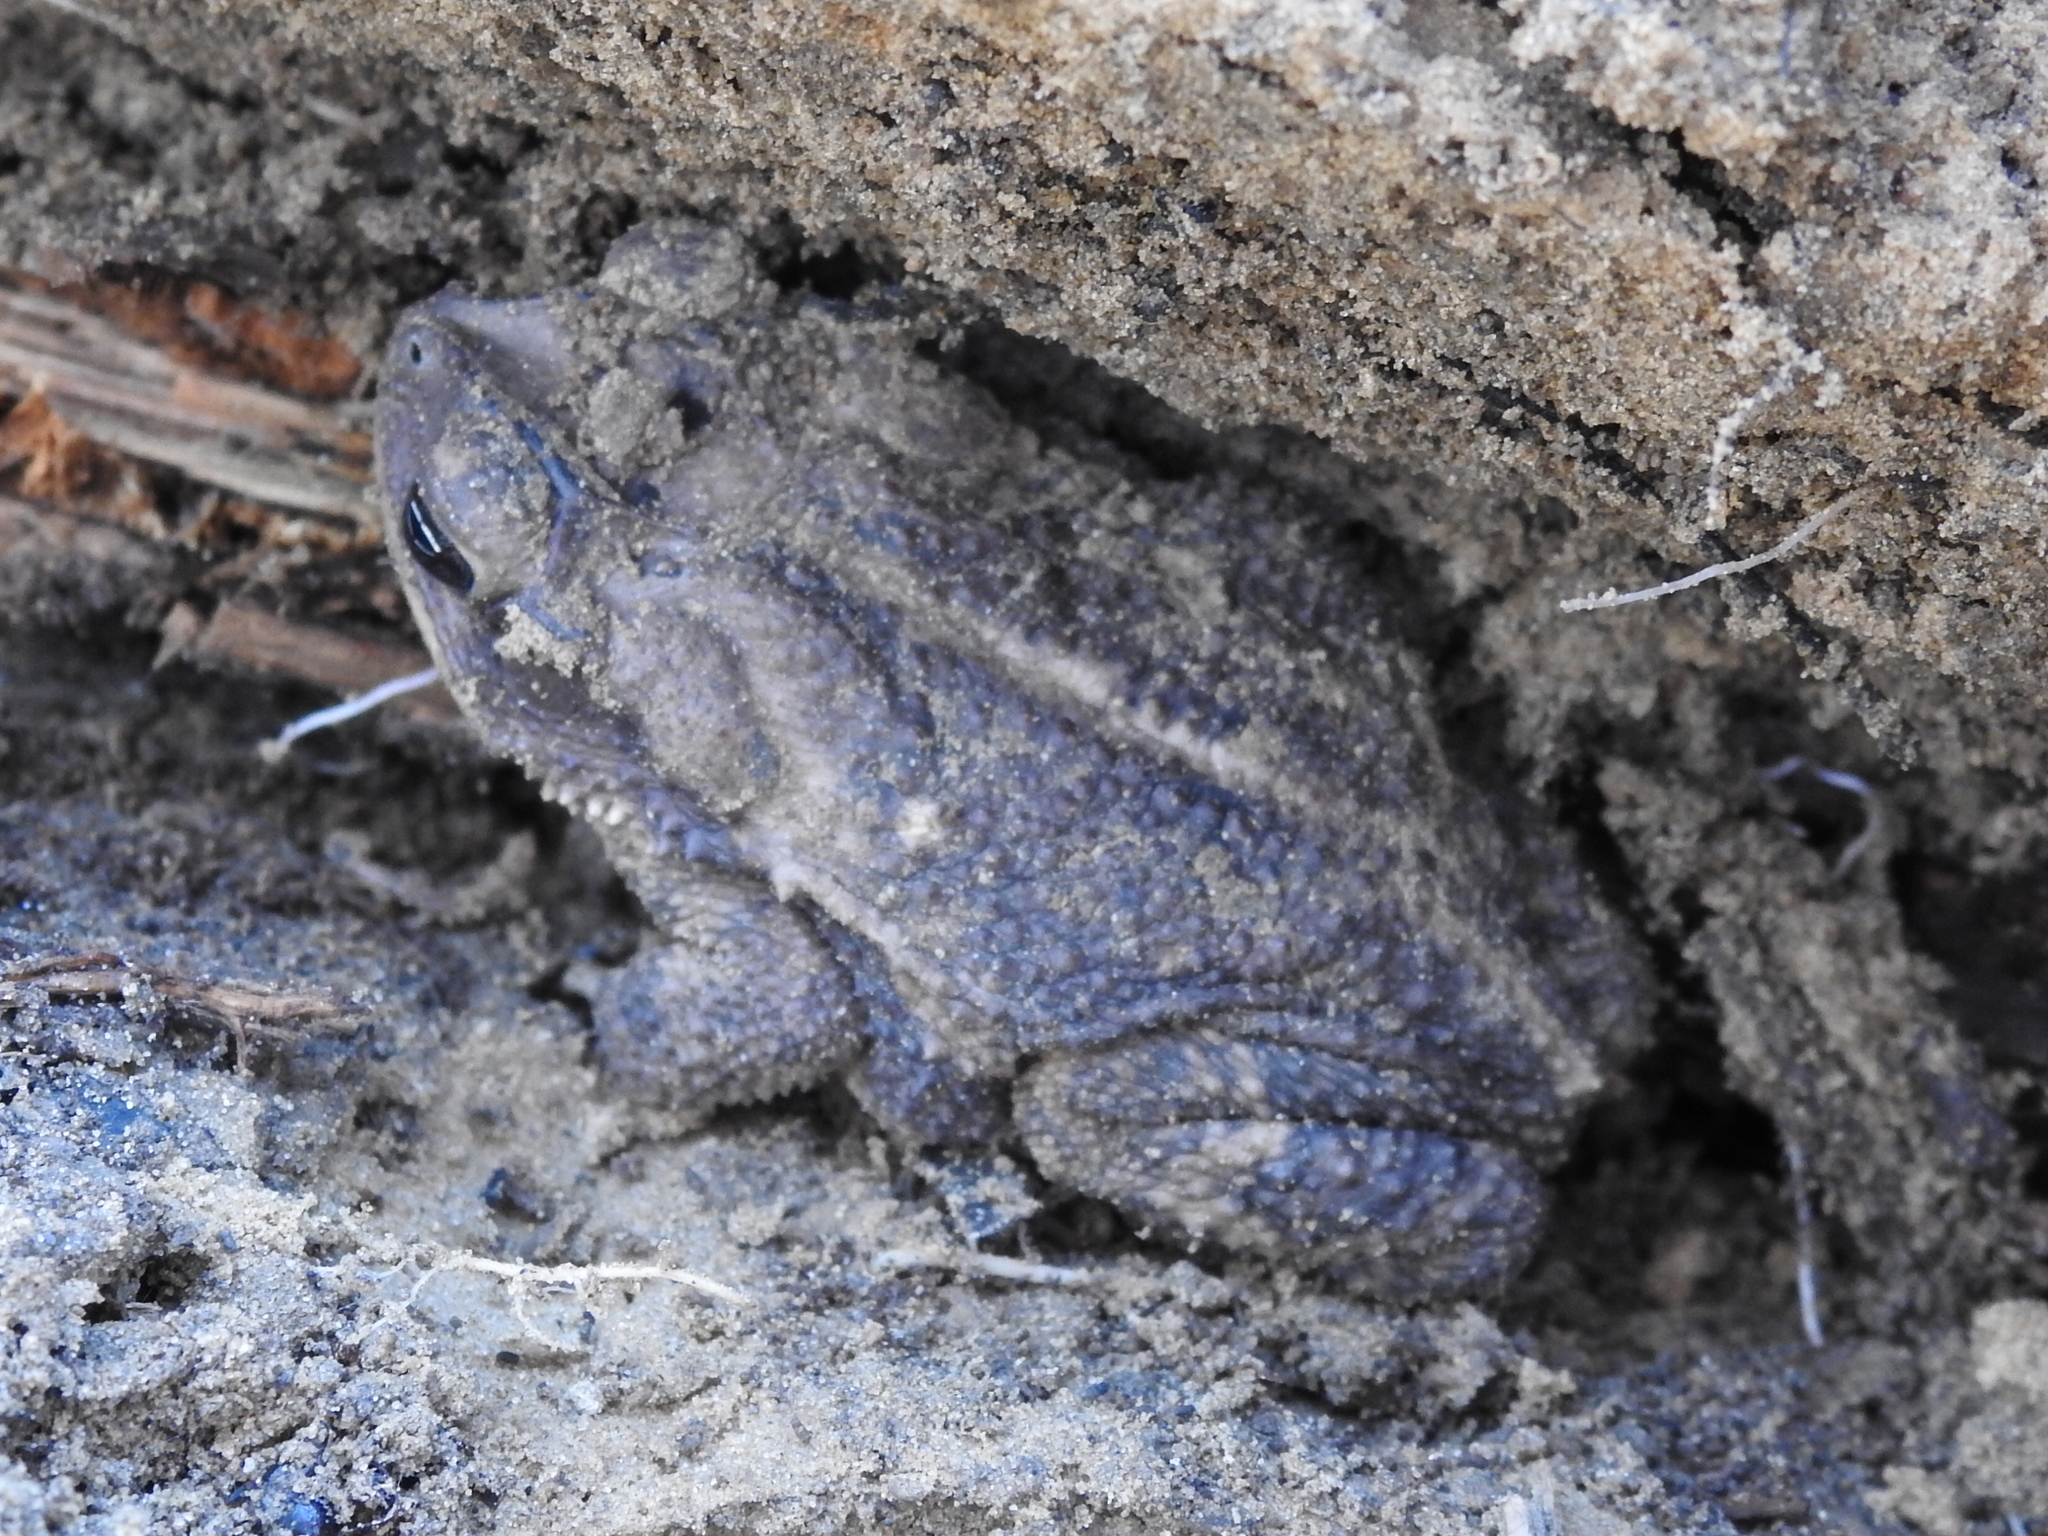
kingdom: Animalia
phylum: Chordata
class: Amphibia
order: Anura
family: Bufonidae
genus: Incilius
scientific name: Incilius nebulifer
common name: Gulf coast toad
